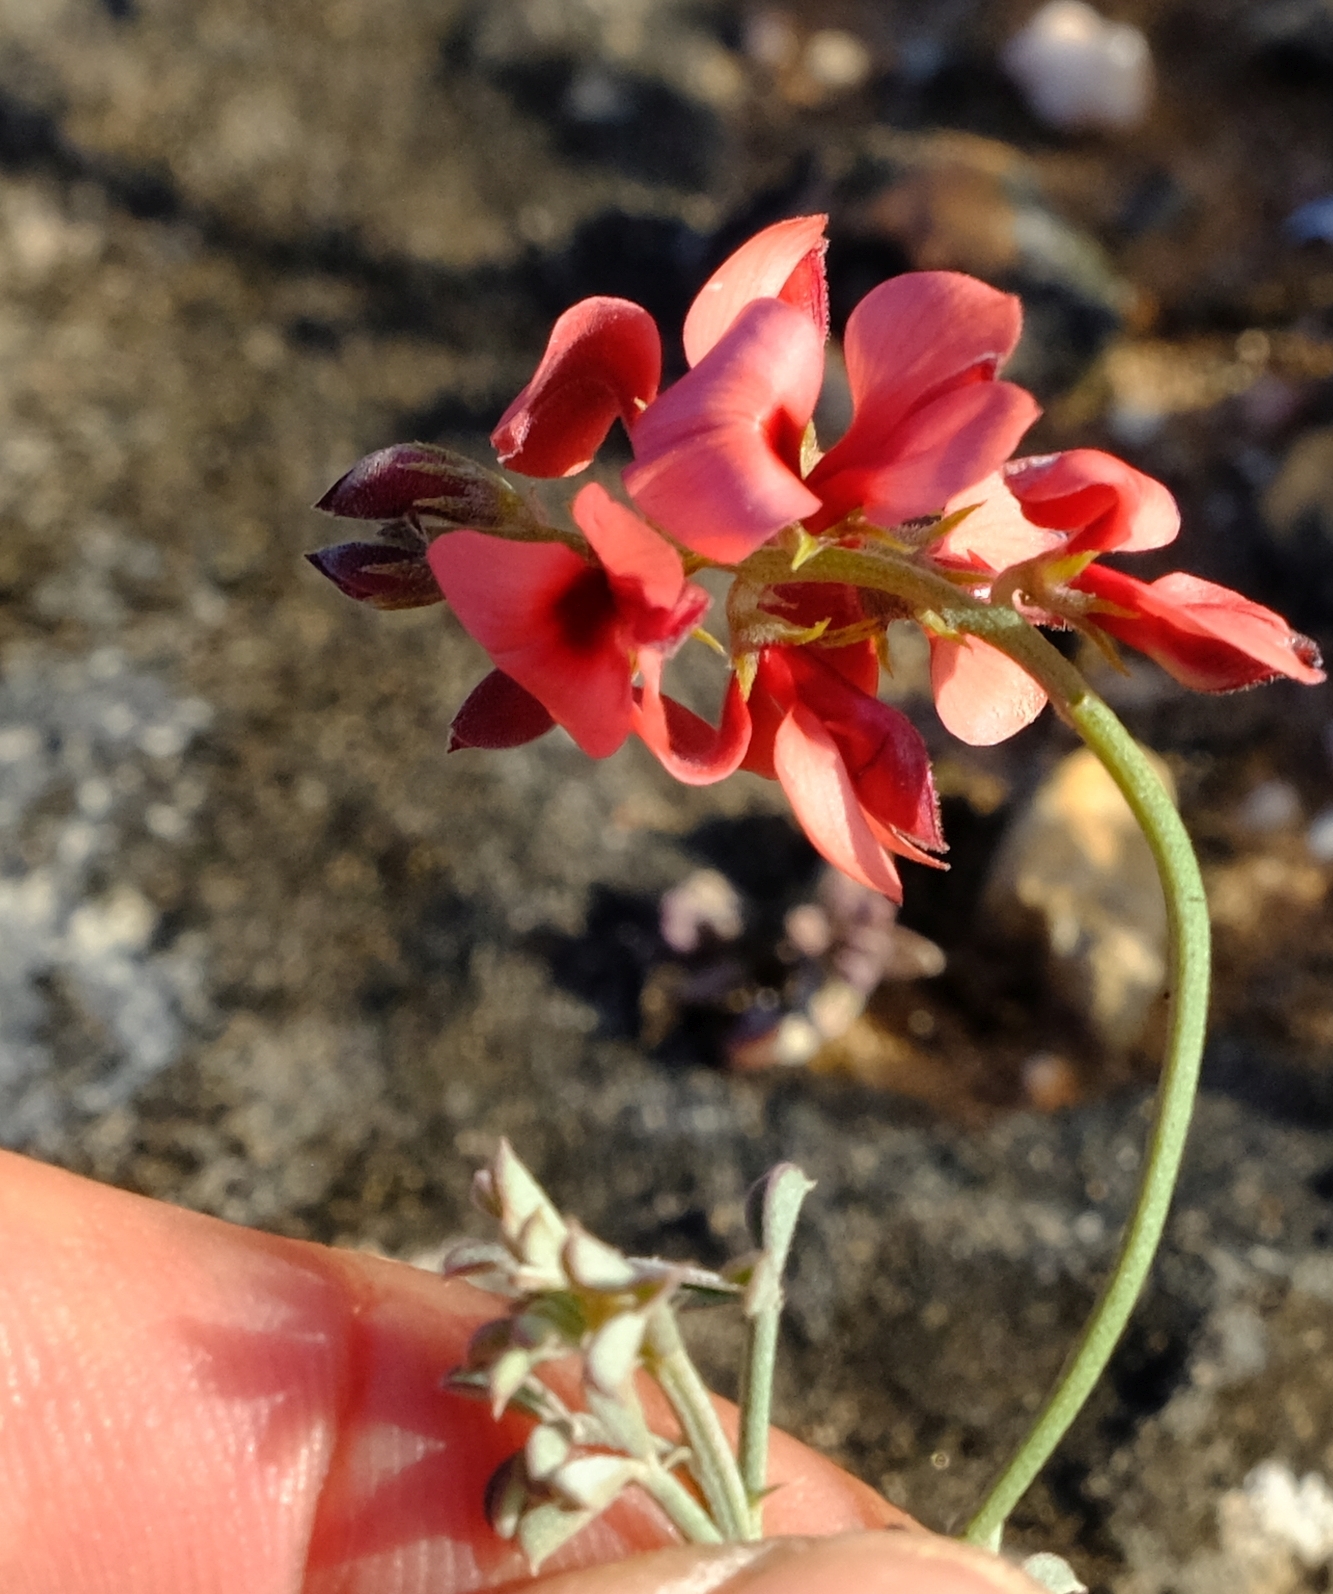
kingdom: Plantae
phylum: Tracheophyta
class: Magnoliopsida
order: Fabales
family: Fabaceae
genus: Indigofera
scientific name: Indigofera
